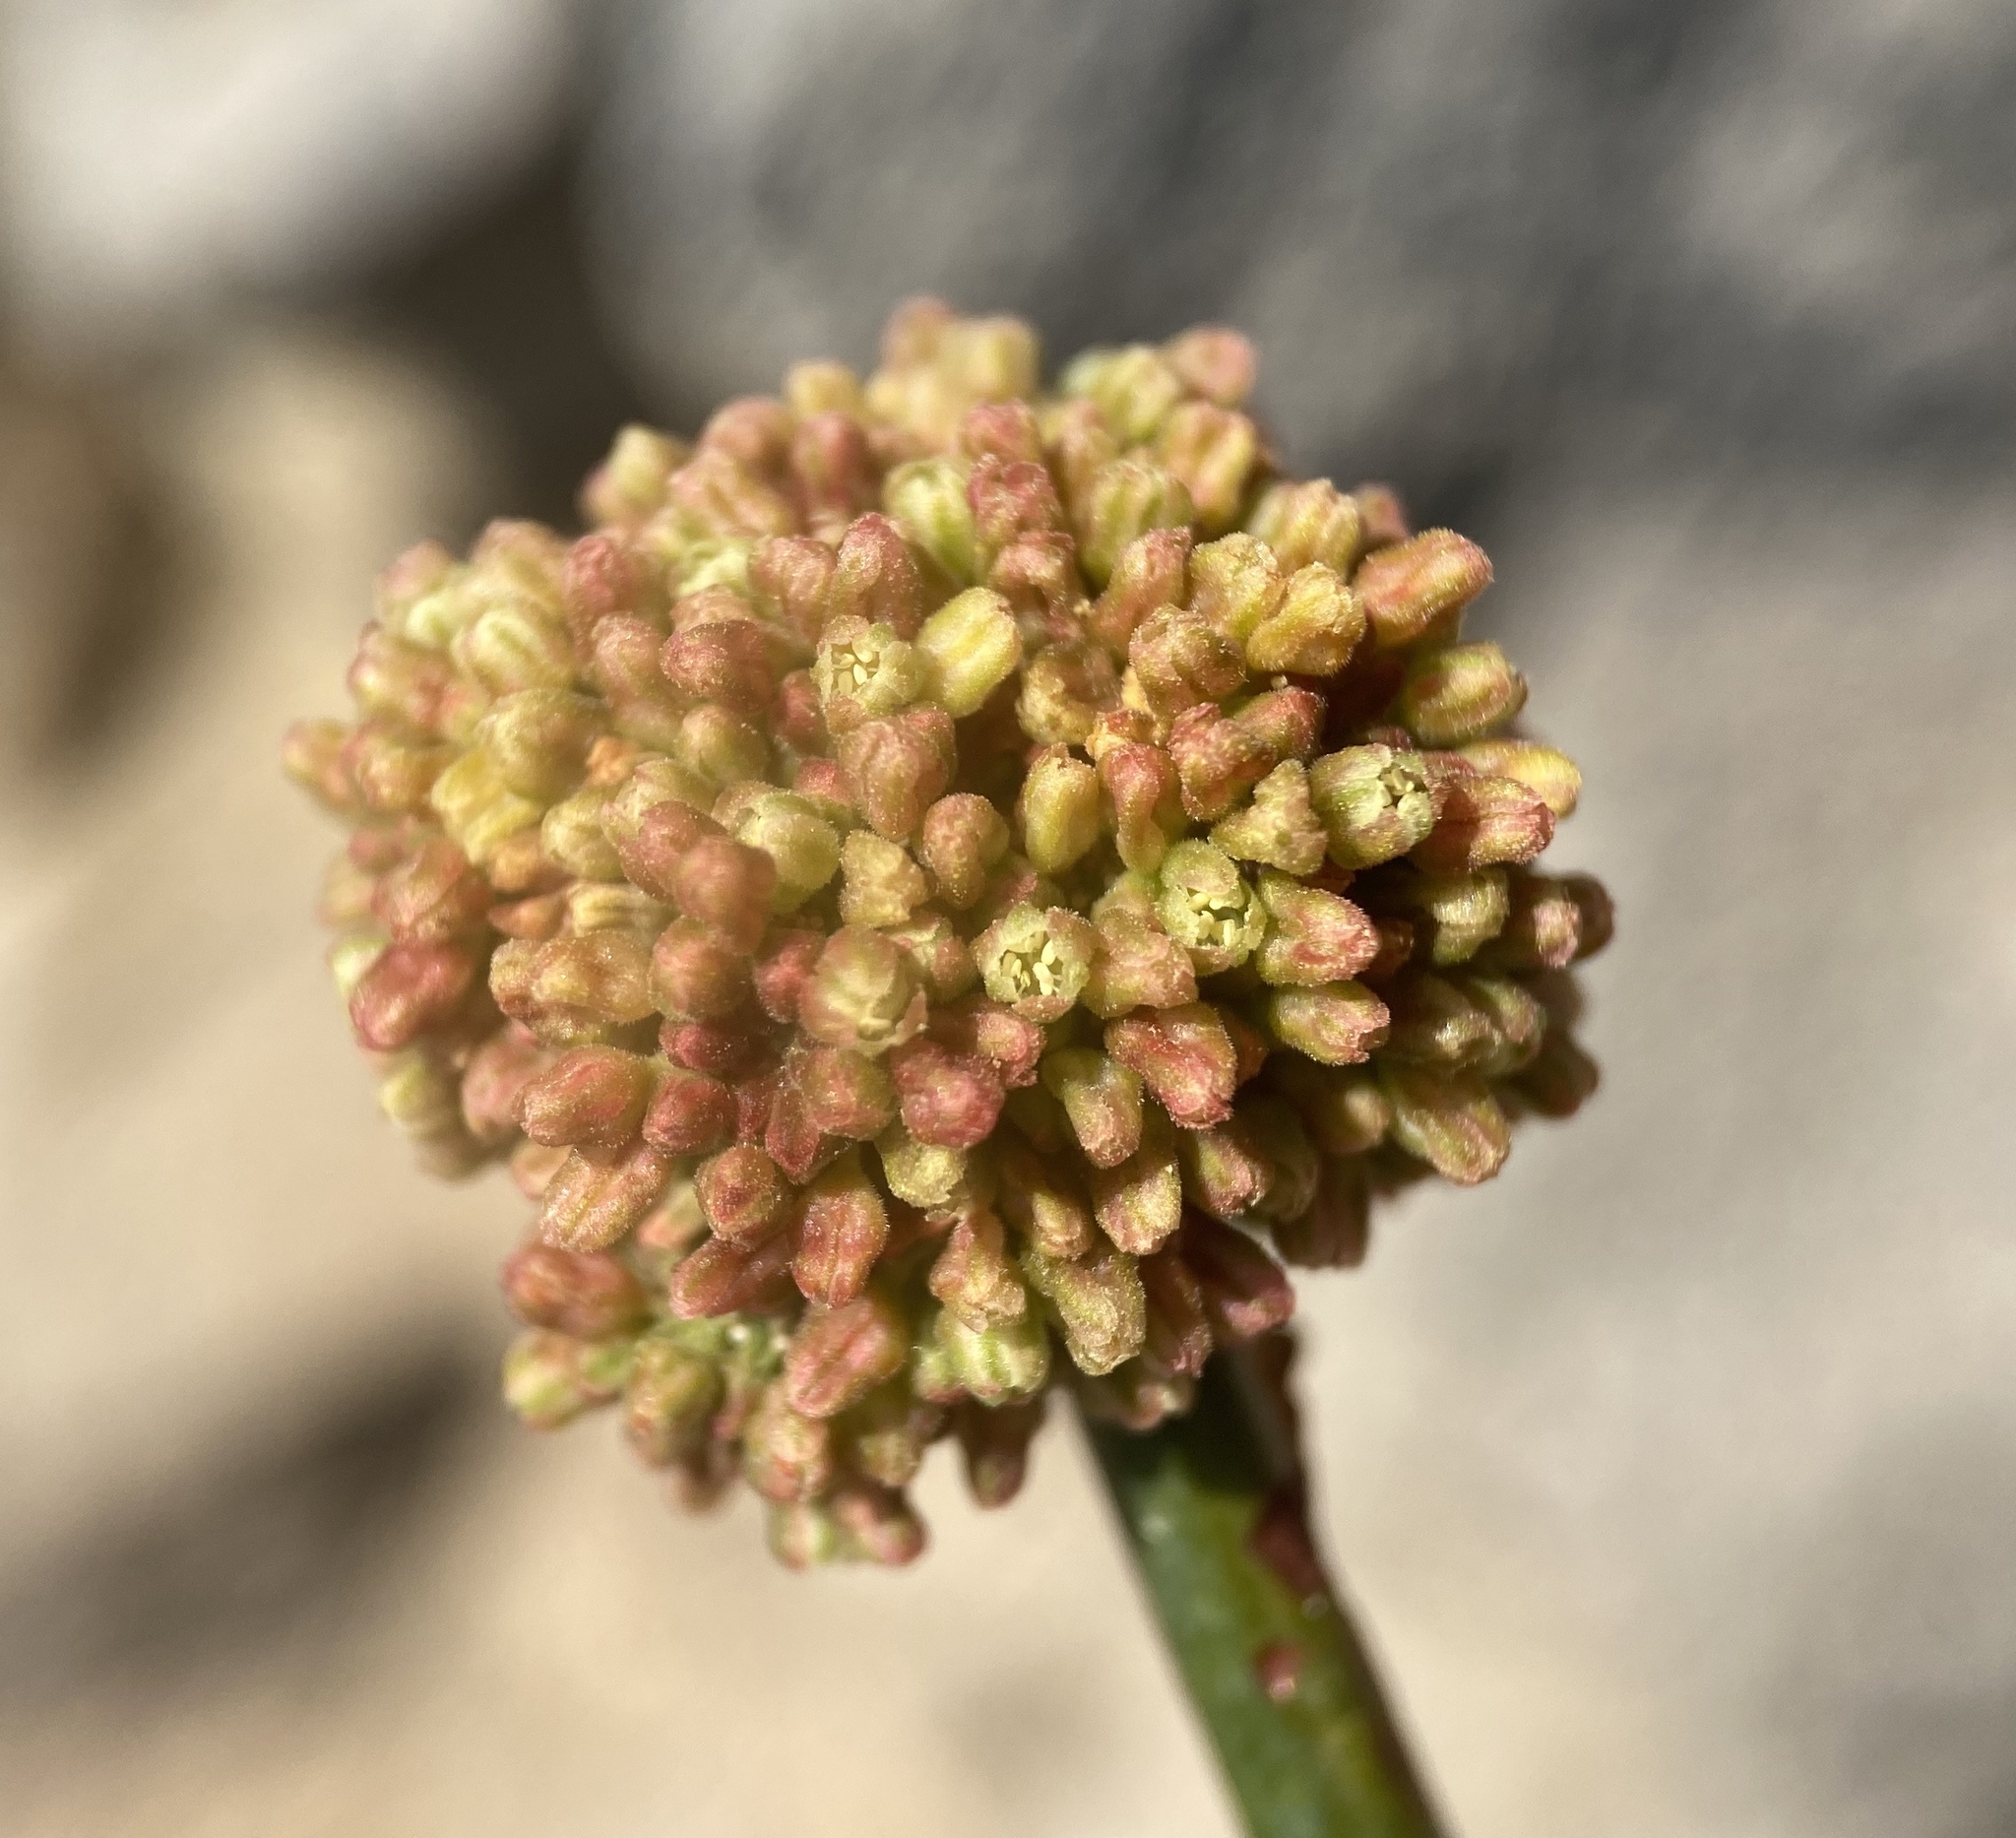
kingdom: Plantae
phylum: Tracheophyta
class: Magnoliopsida
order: Caryophyllales
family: Polygonaceae
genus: Eriogonum
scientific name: Eriogonum intrafractum
